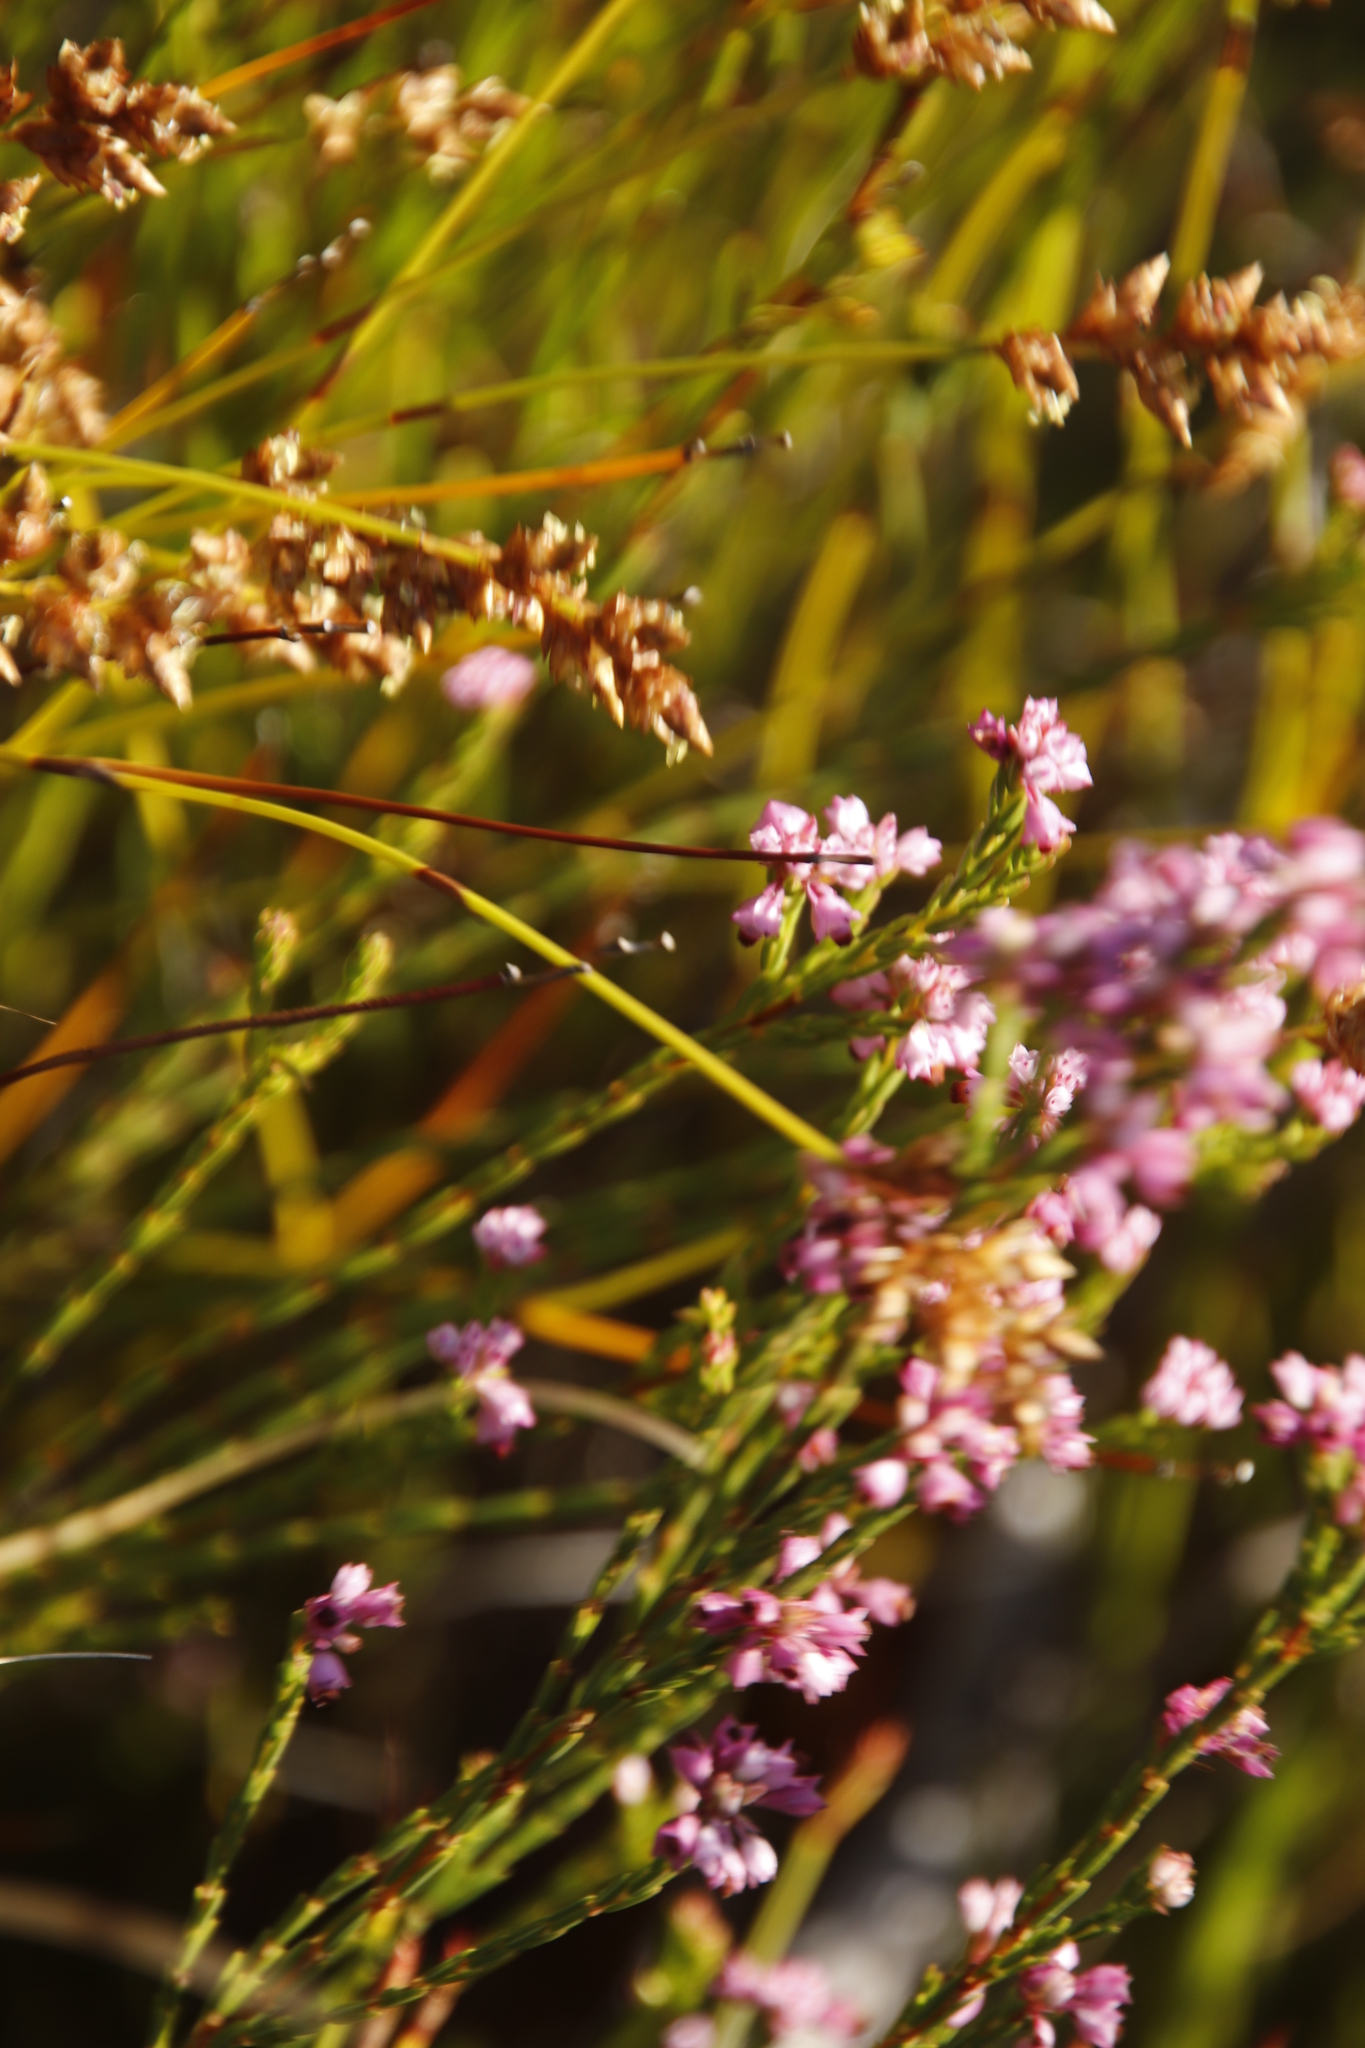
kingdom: Plantae
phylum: Tracheophyta
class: Magnoliopsida
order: Ericales
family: Ericaceae
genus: Erica
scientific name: Erica corifolia
